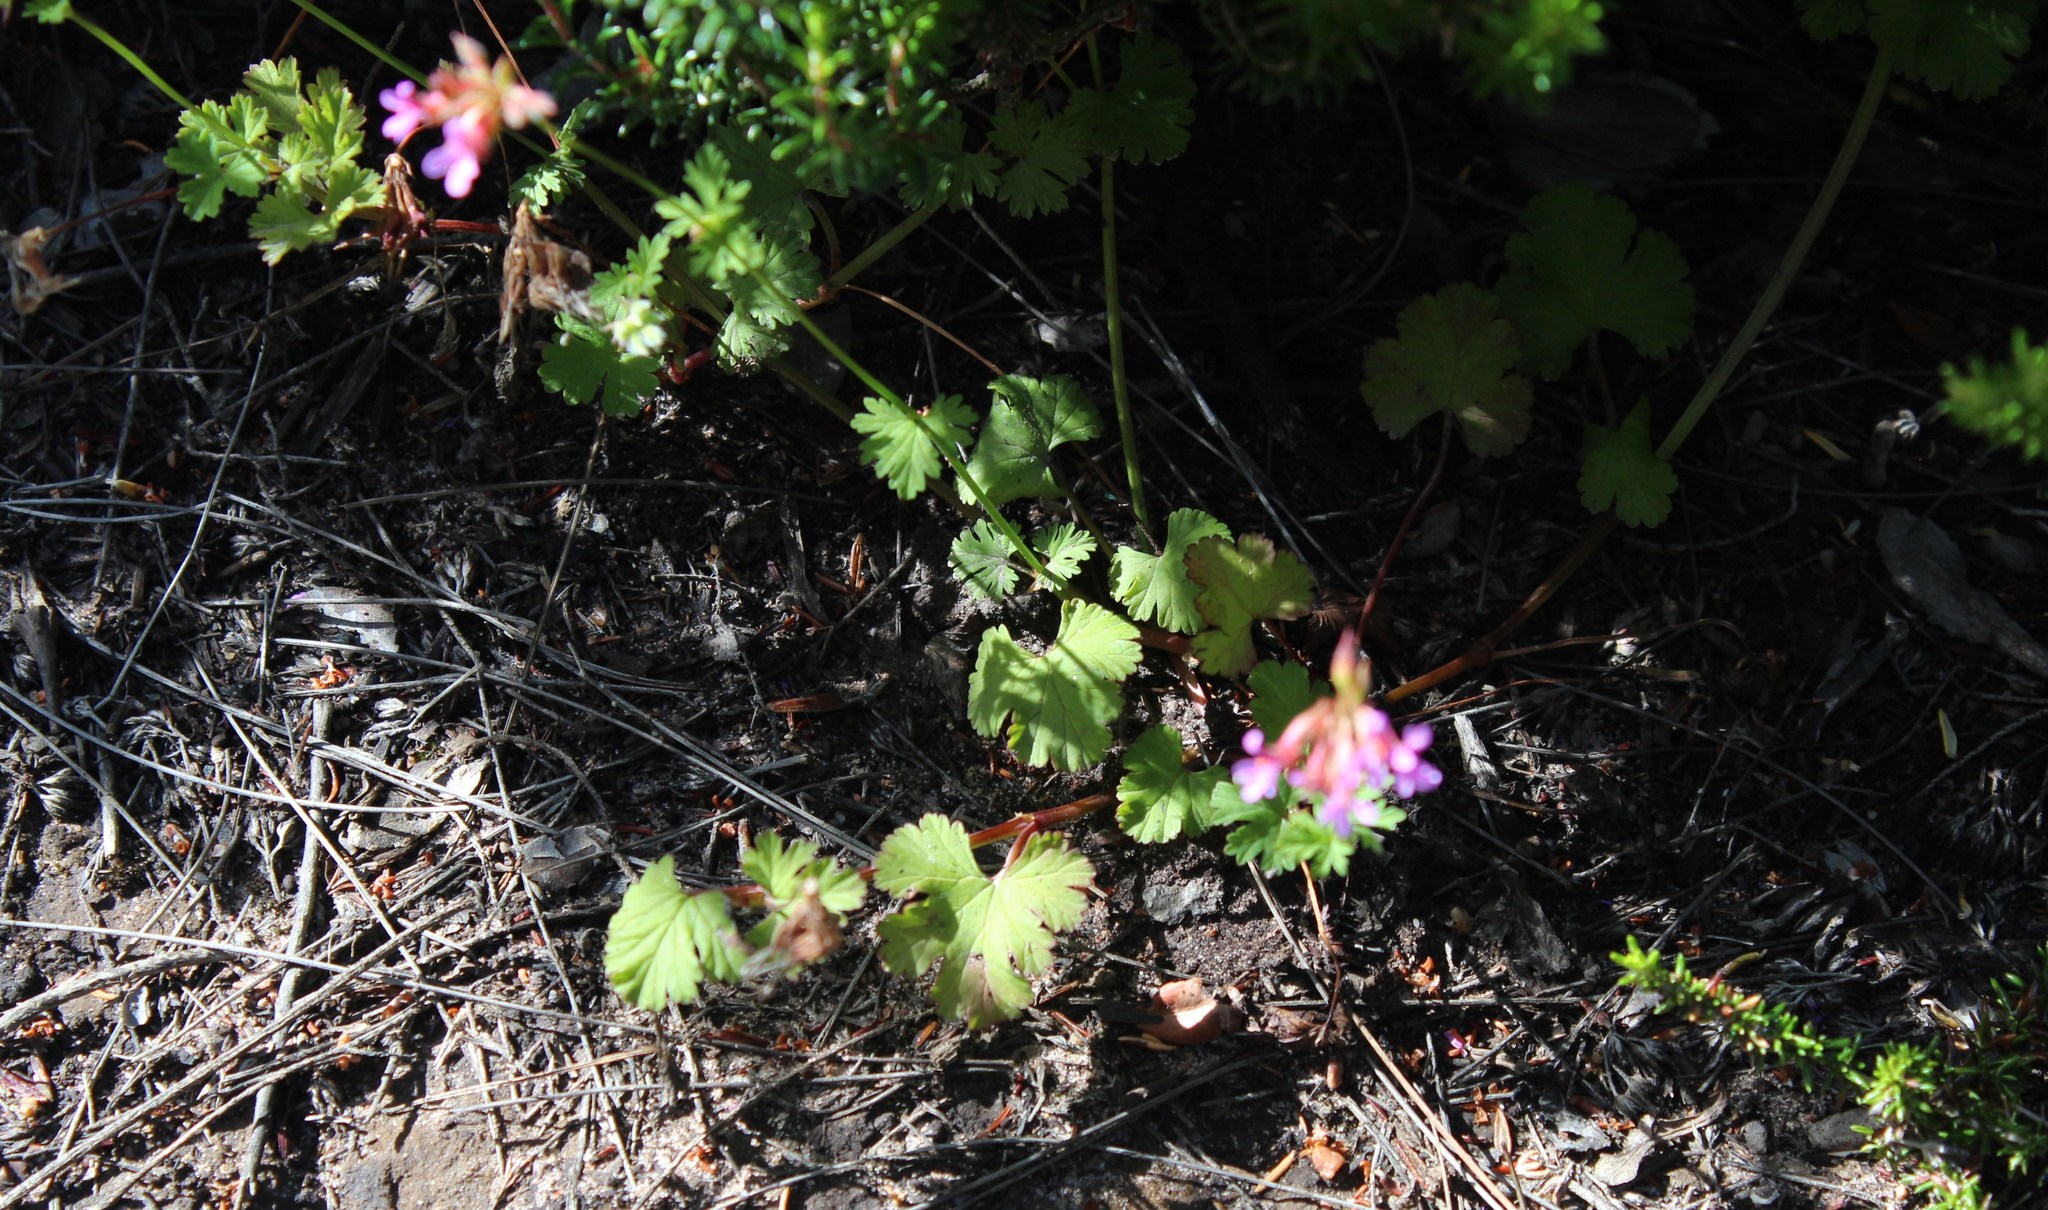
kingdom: Plantae
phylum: Tracheophyta
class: Magnoliopsida
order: Geraniales
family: Geraniaceae
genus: Pelargonium
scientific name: Pelargonium grossularioides
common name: Gooseberry geranium
